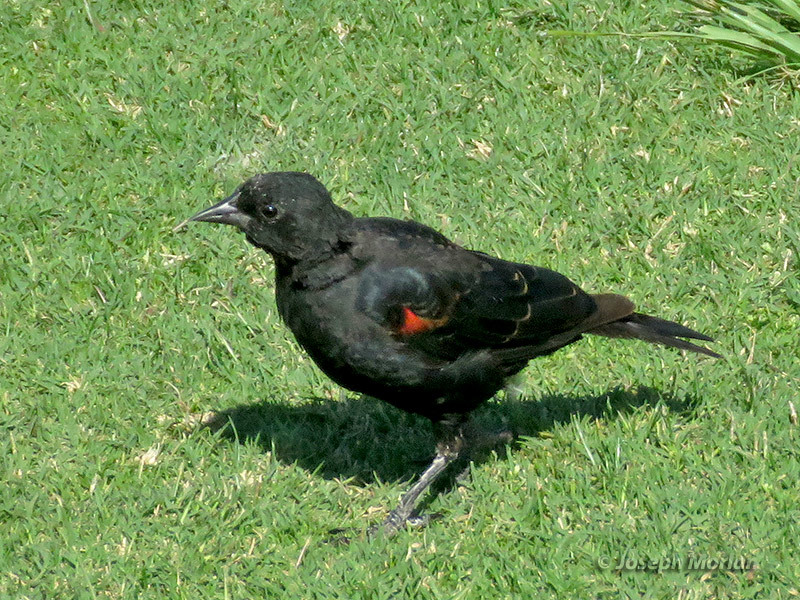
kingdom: Animalia
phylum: Chordata
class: Aves
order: Passeriformes
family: Icteridae
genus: Agelaius
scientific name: Agelaius phoeniceus
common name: Red-winged blackbird
